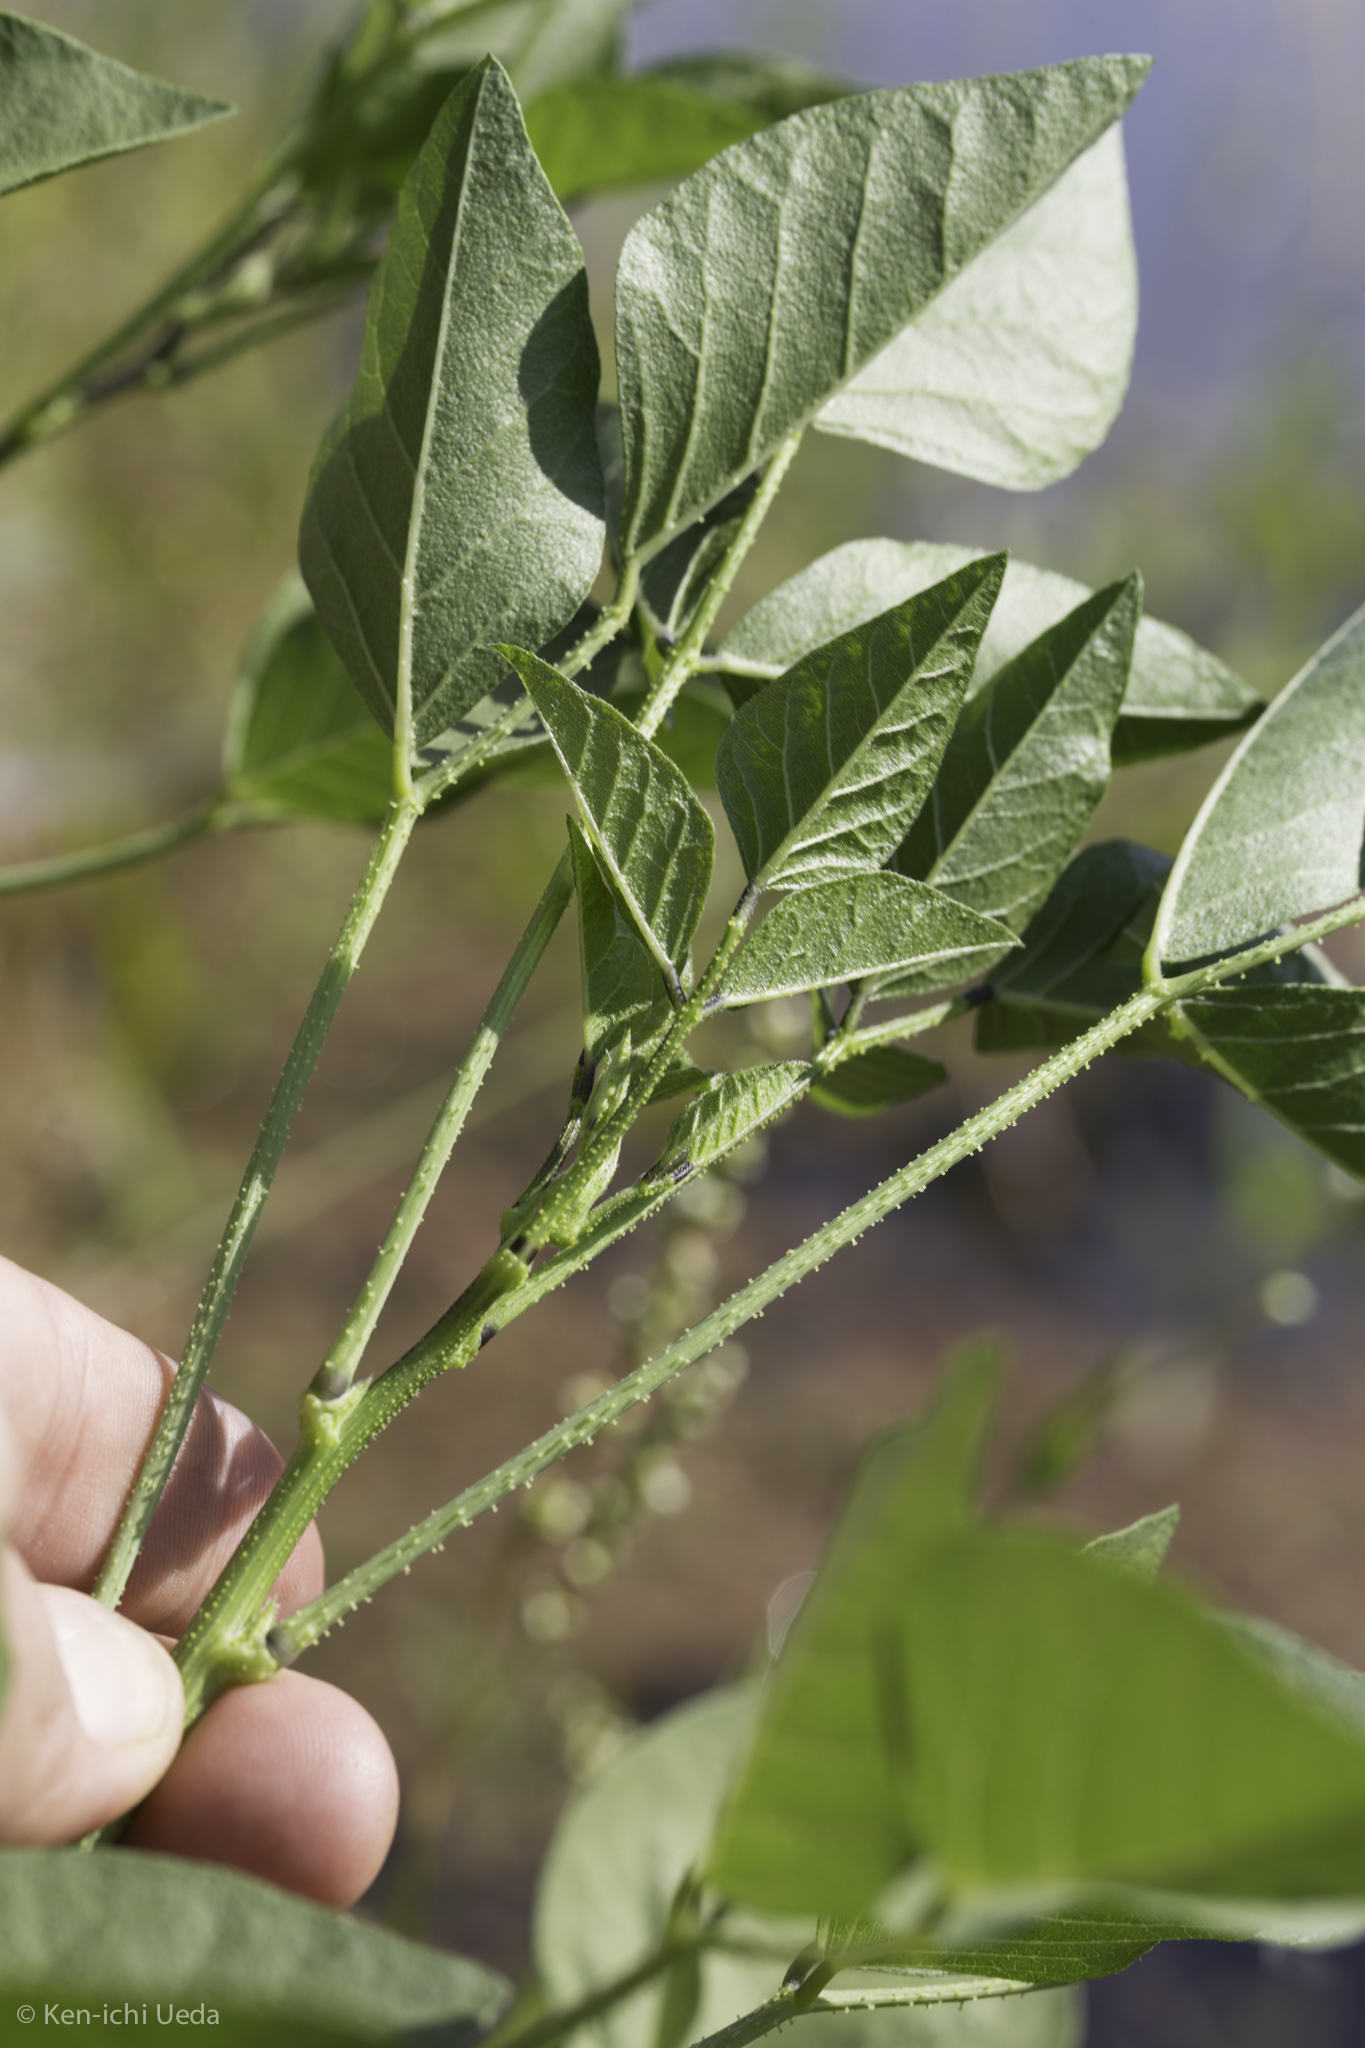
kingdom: Plantae
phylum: Tracheophyta
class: Magnoliopsida
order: Fabales
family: Fabaceae
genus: Hoita
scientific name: Hoita macrostachya
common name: Leatherroot
